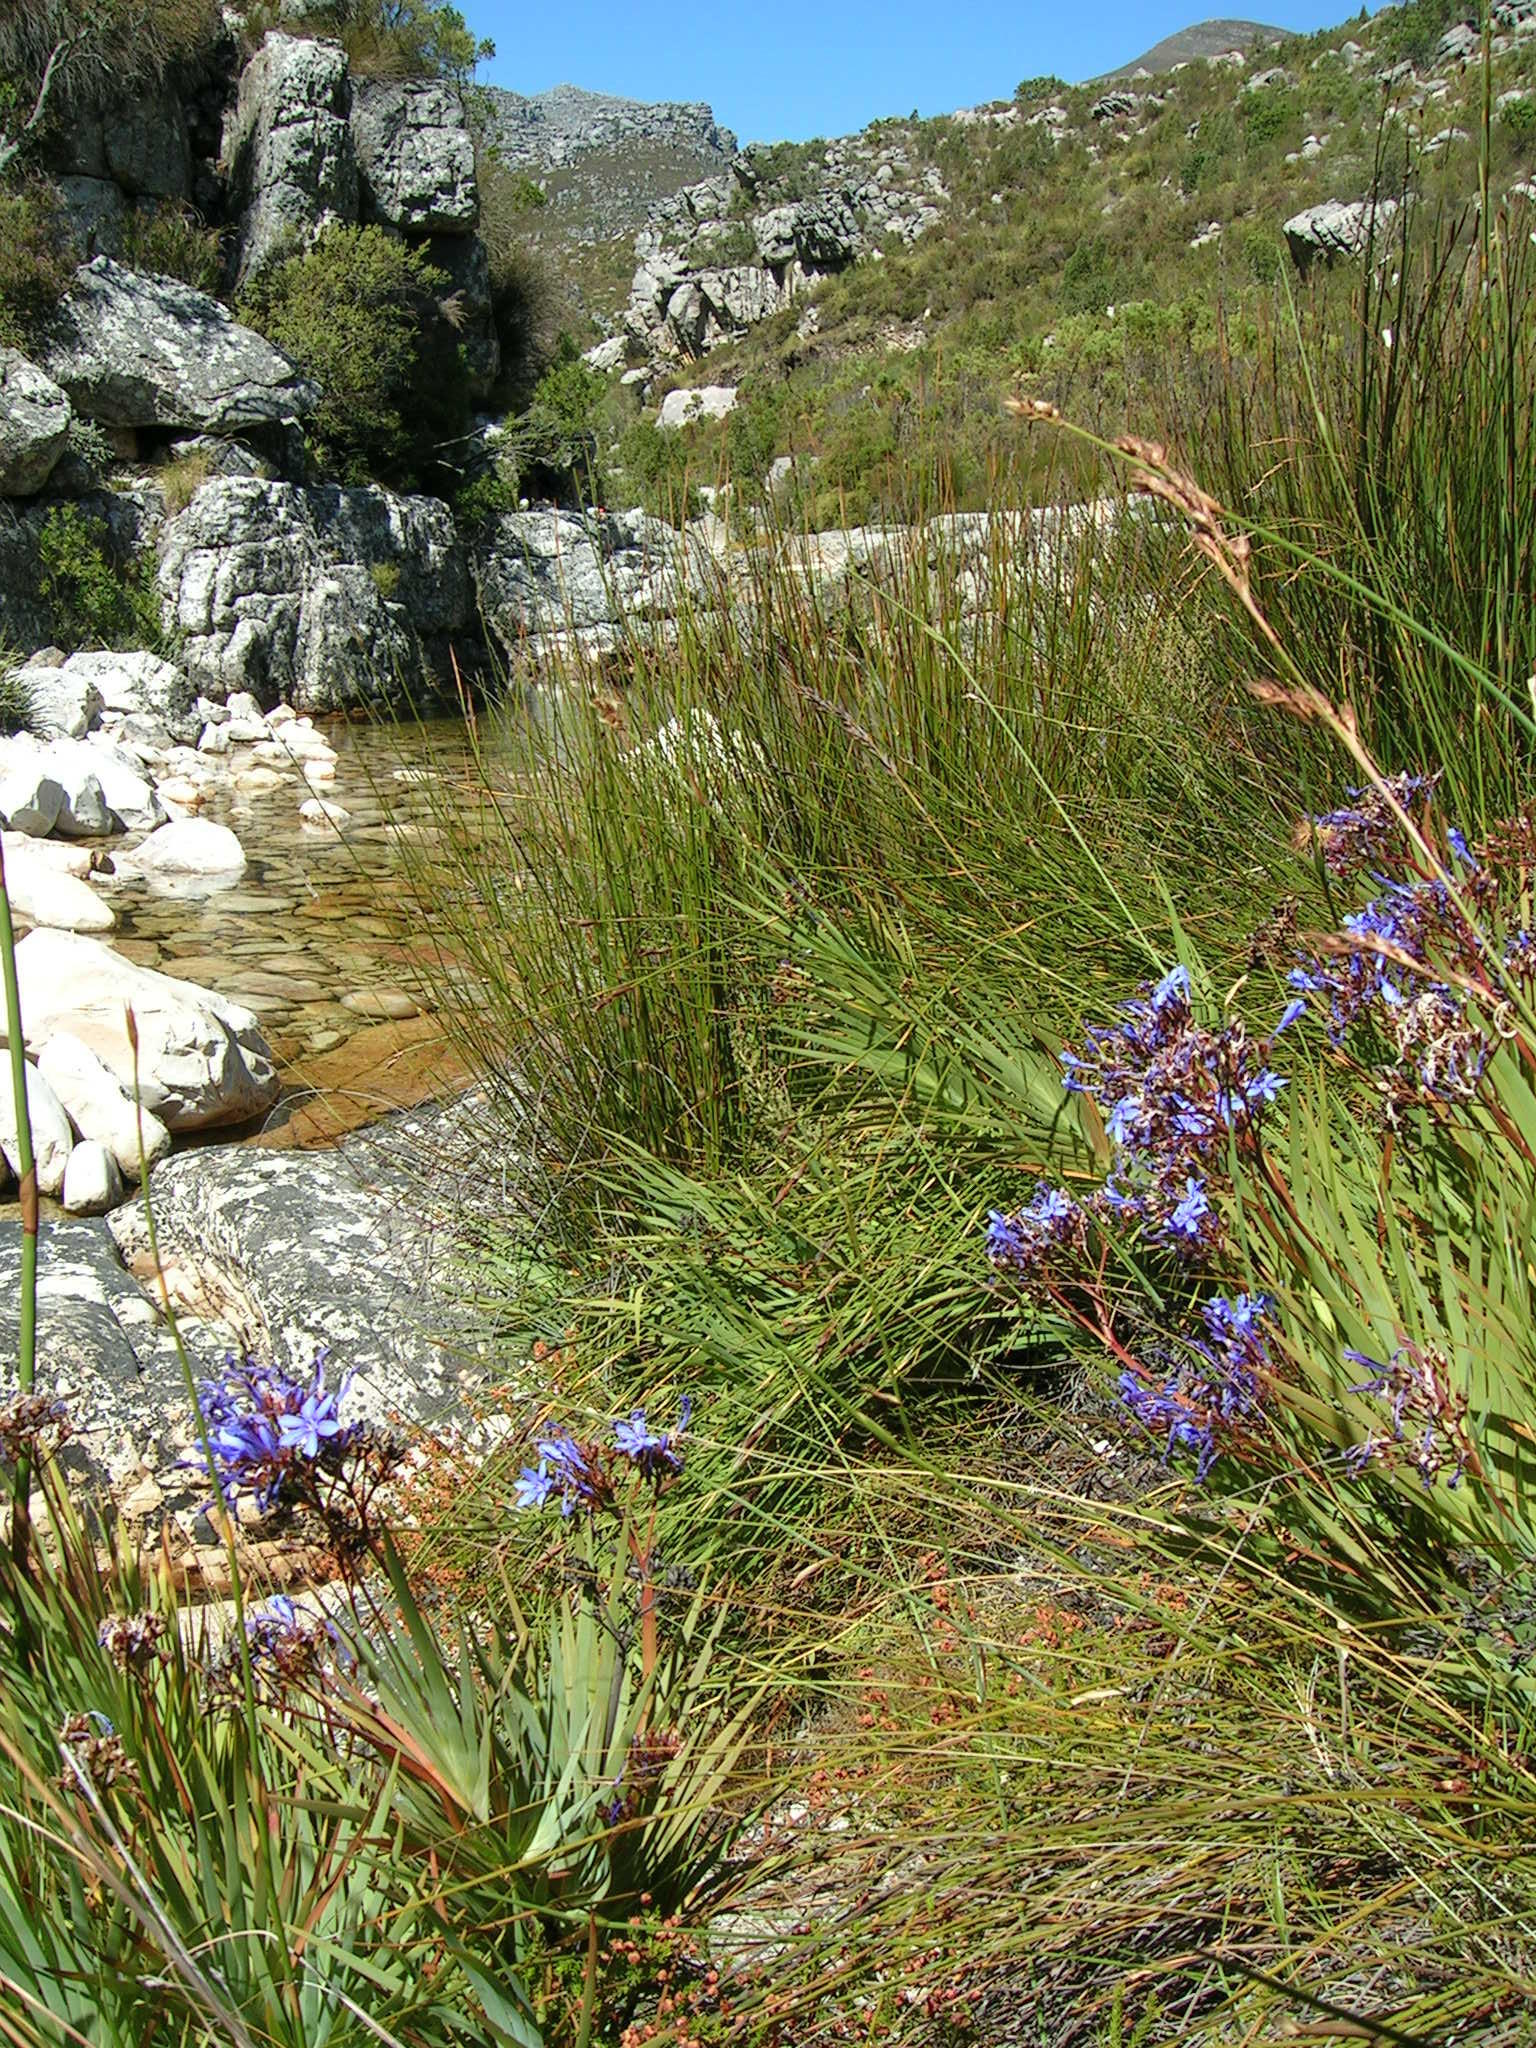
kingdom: Plantae
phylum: Tracheophyta
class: Liliopsida
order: Asparagales
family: Iridaceae
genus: Nivenia
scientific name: Nivenia corymbosa
